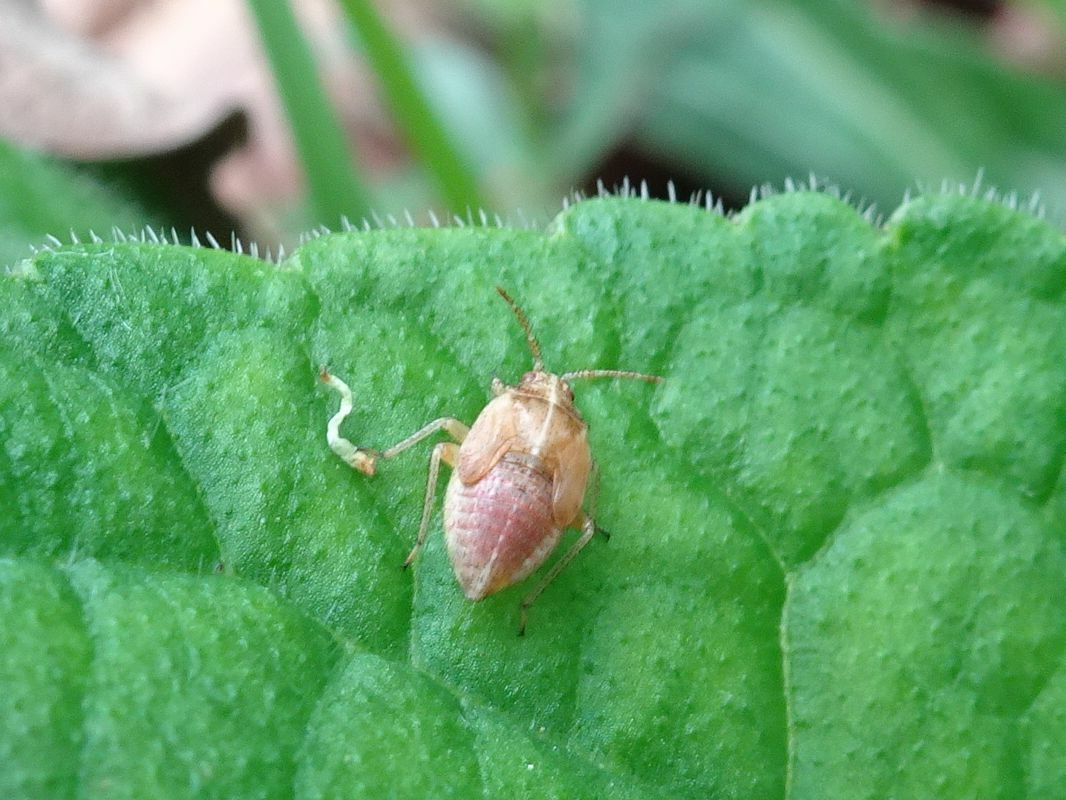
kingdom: Animalia
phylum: Arthropoda
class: Insecta
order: Hemiptera
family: Miridae
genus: Harpocera
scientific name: Harpocera thoracica
